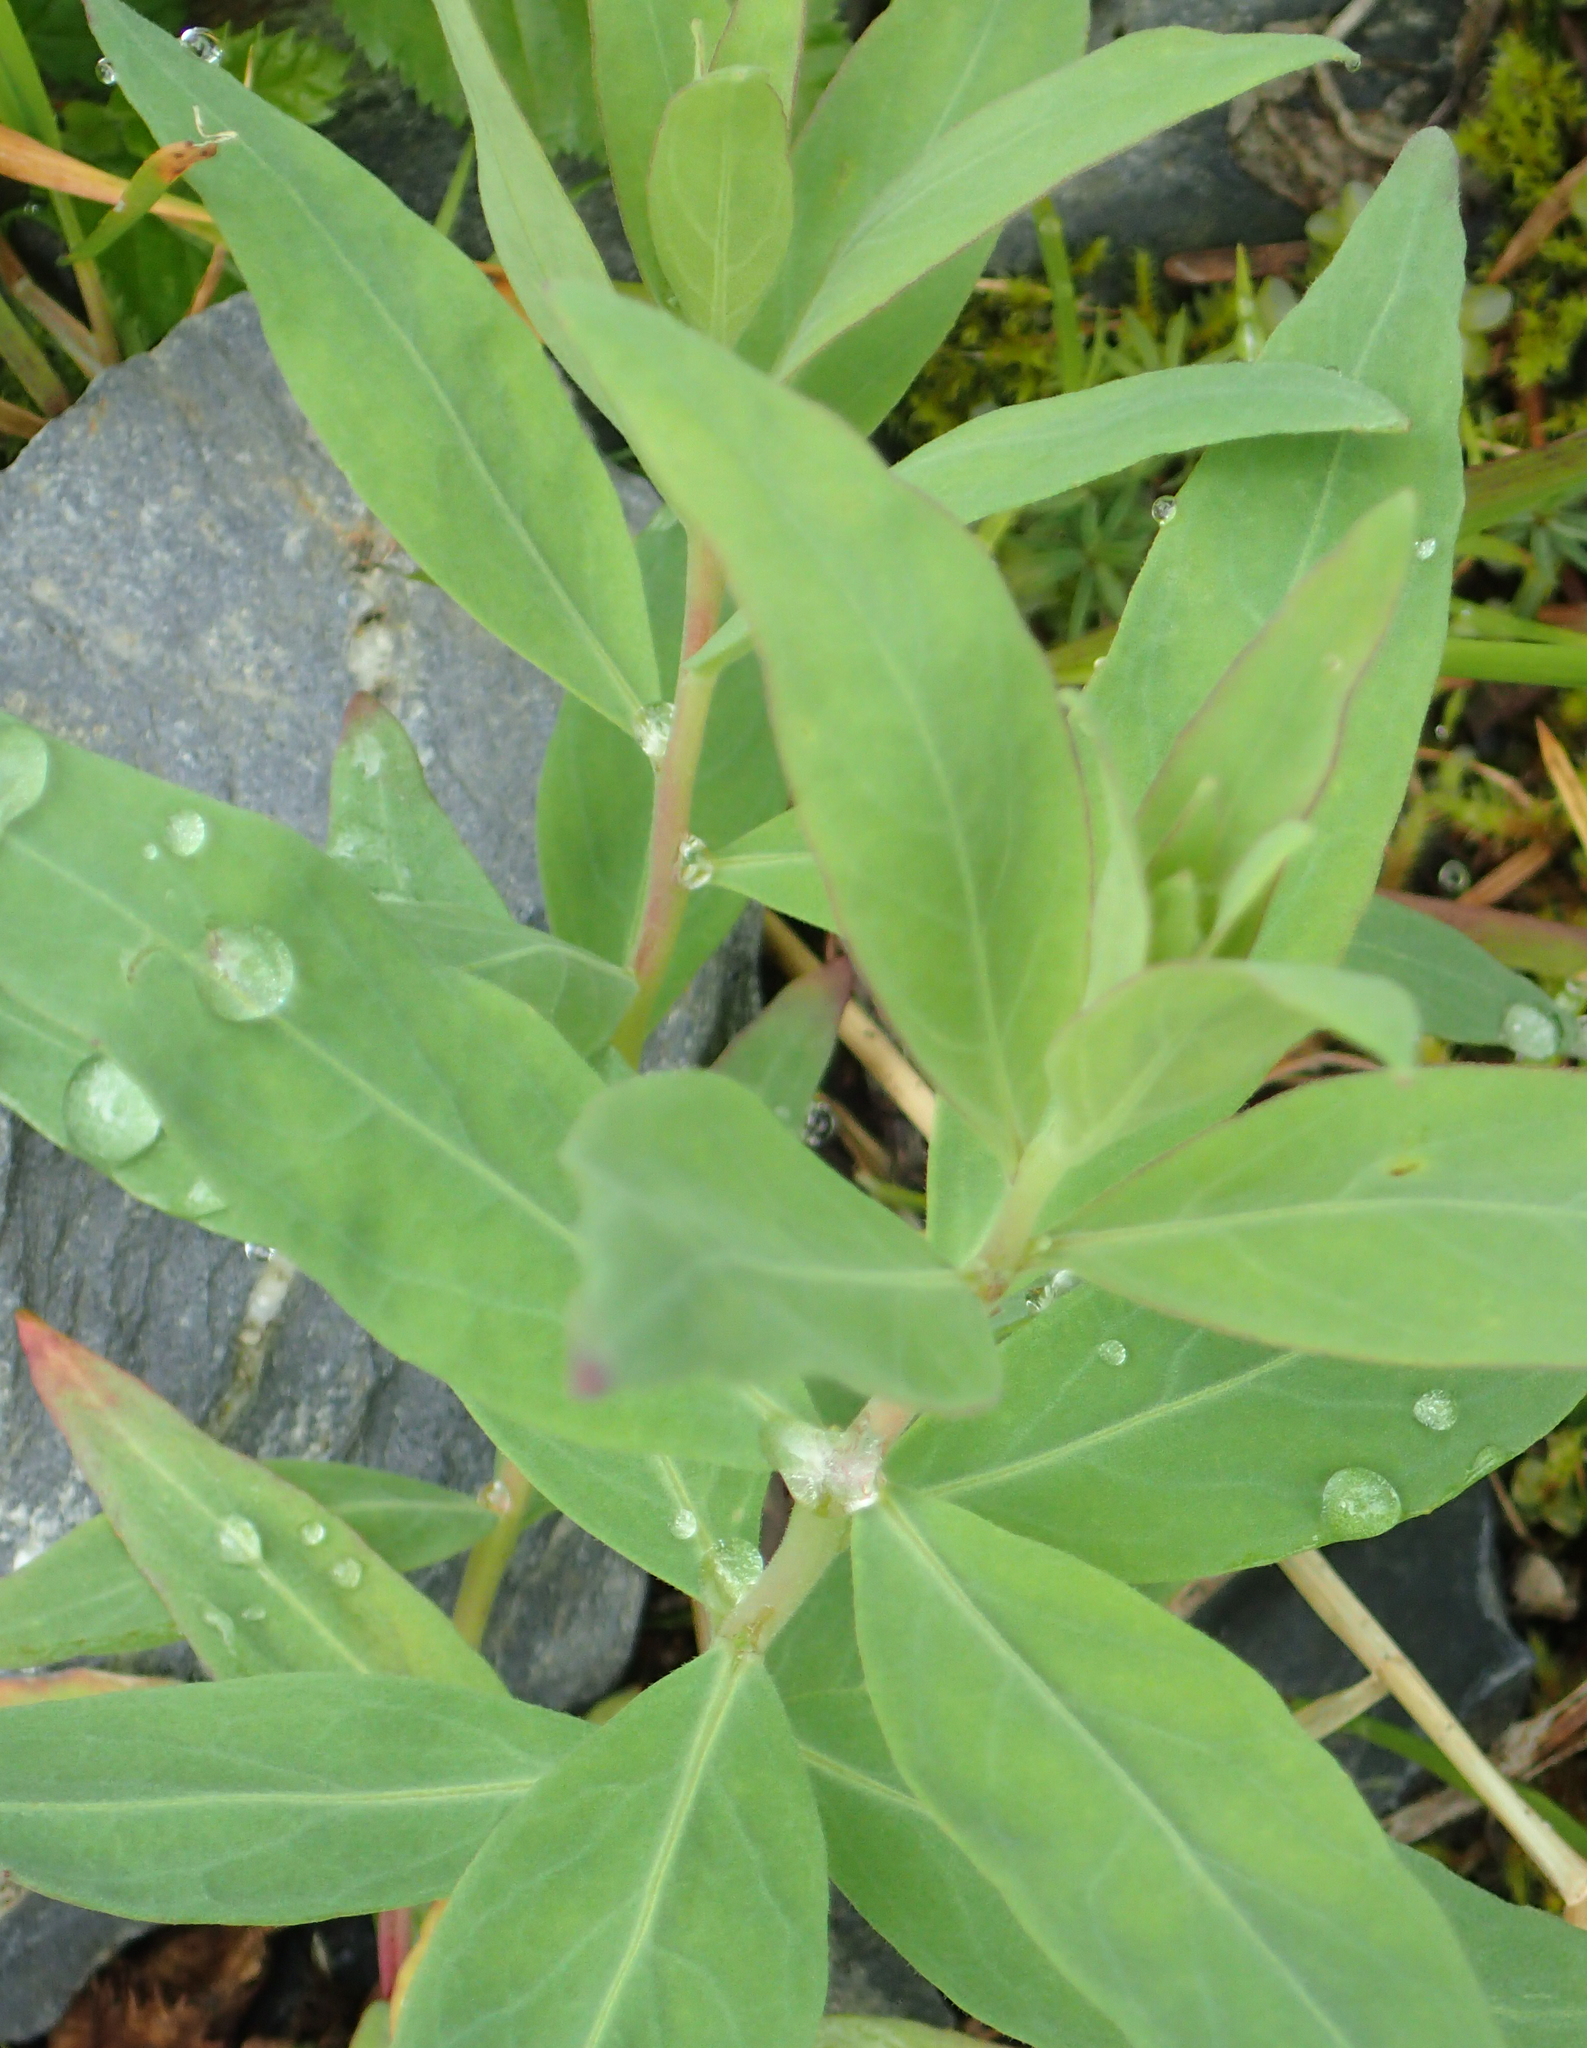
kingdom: Plantae
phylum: Tracheophyta
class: Magnoliopsida
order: Myrtales
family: Onagraceae
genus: Chamaenerion
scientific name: Chamaenerion latifolium
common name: Dwarf fireweed
